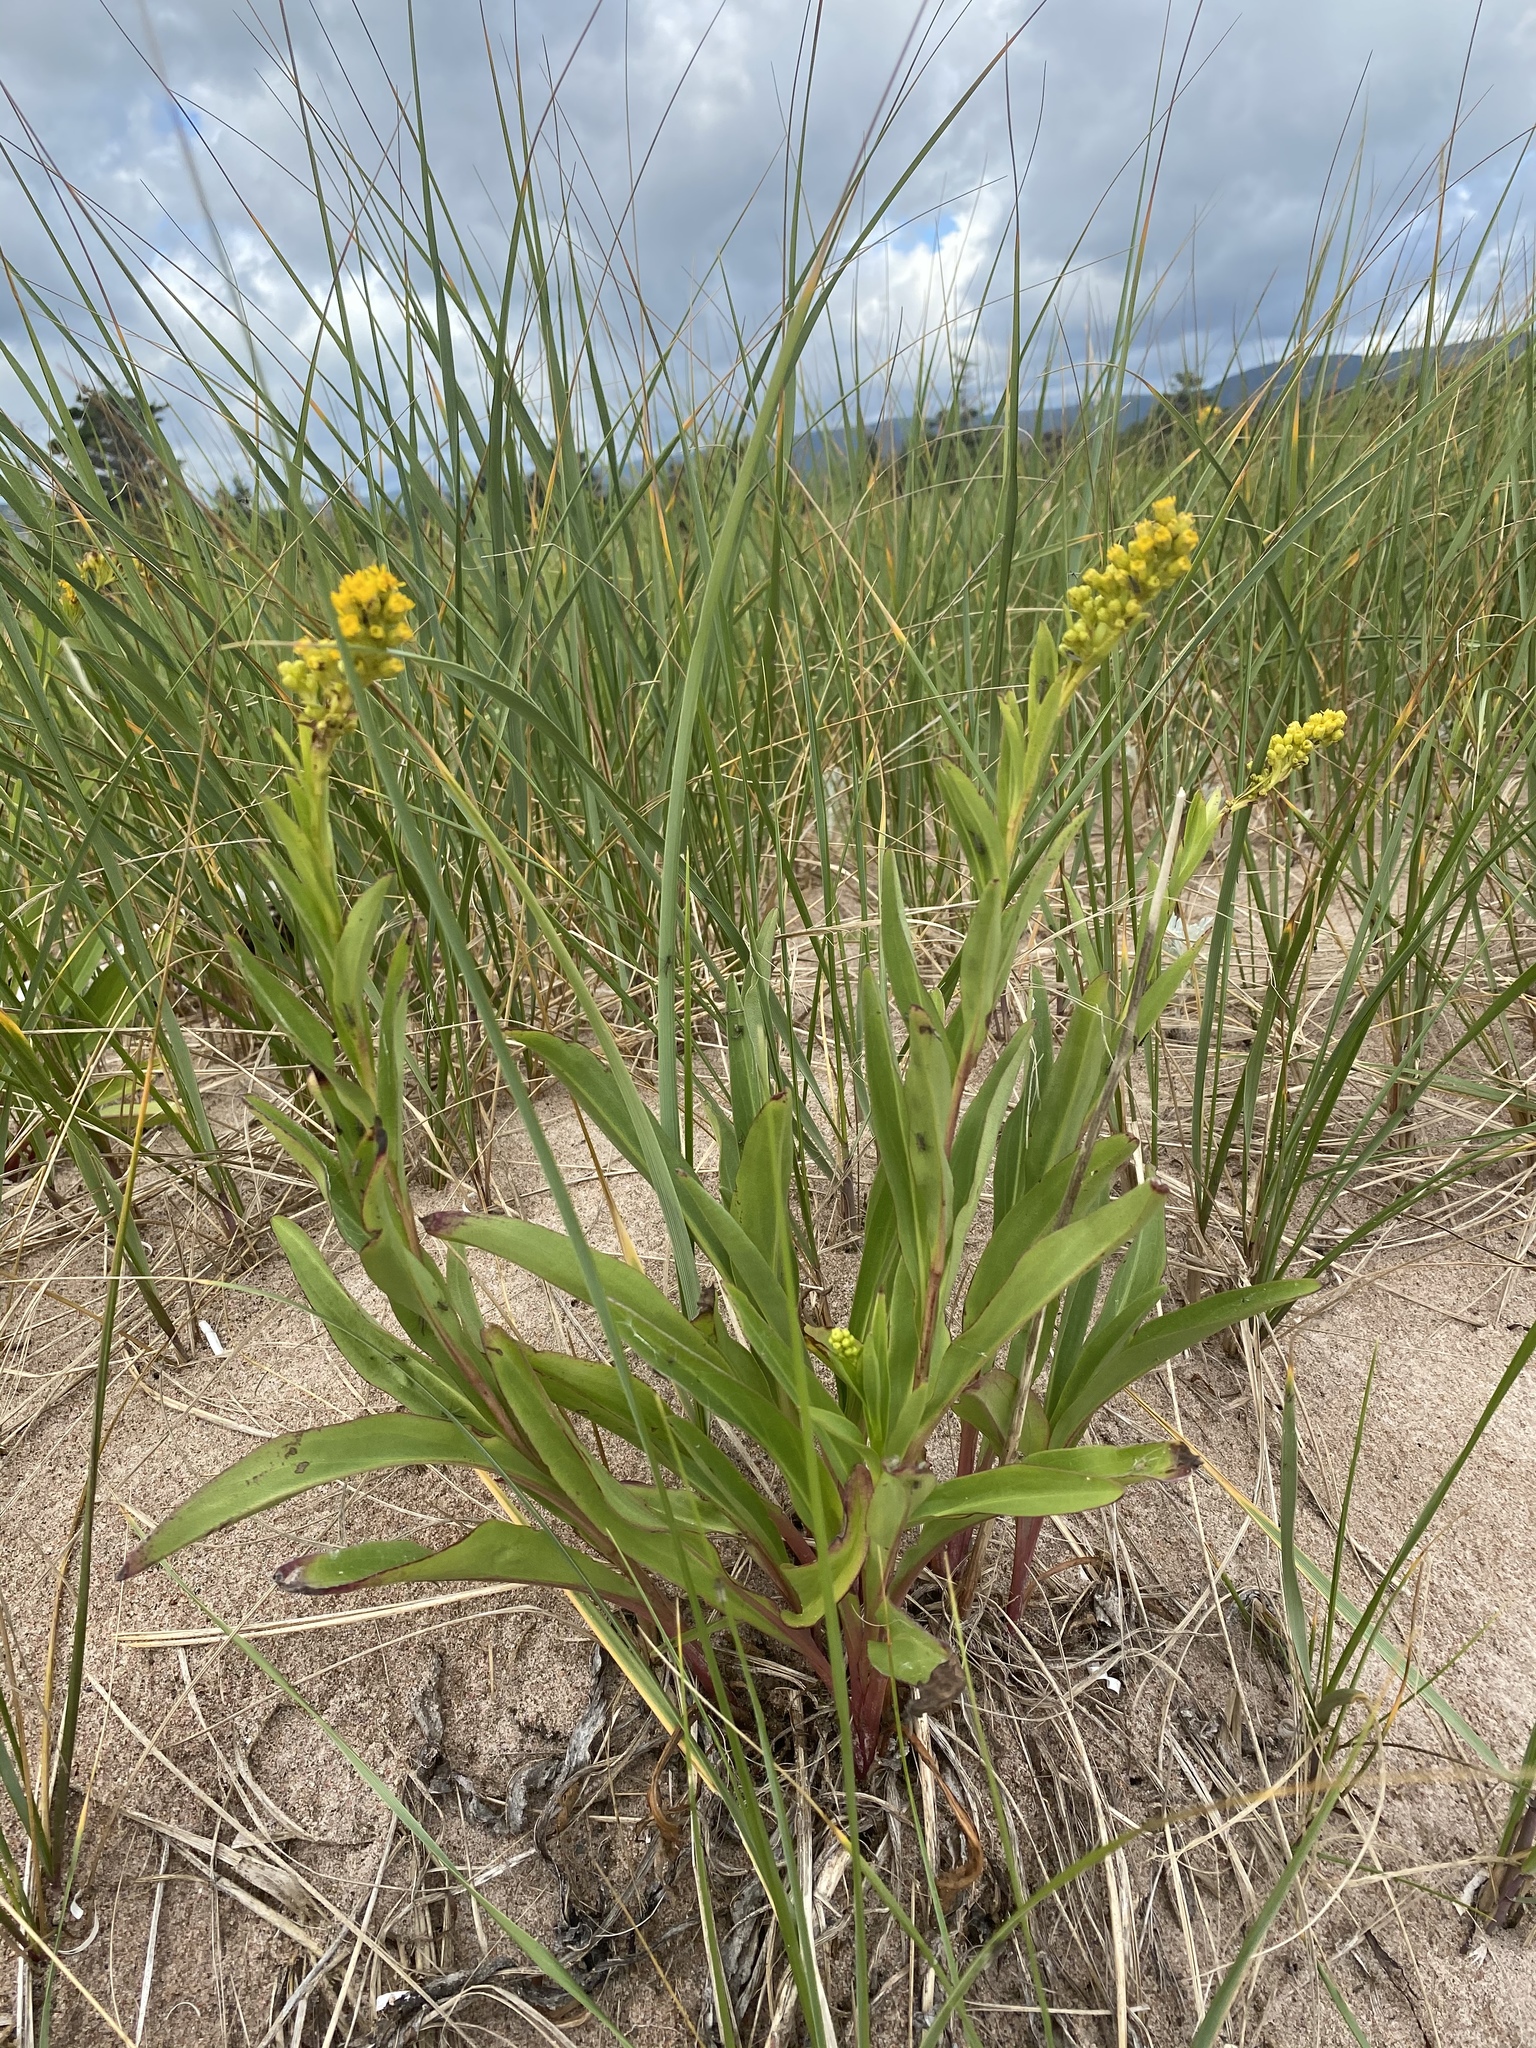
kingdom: Plantae
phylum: Tracheophyta
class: Magnoliopsida
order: Asterales
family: Asteraceae
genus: Solidago
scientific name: Solidago sempervirens
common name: Salt-marsh goldenrod
